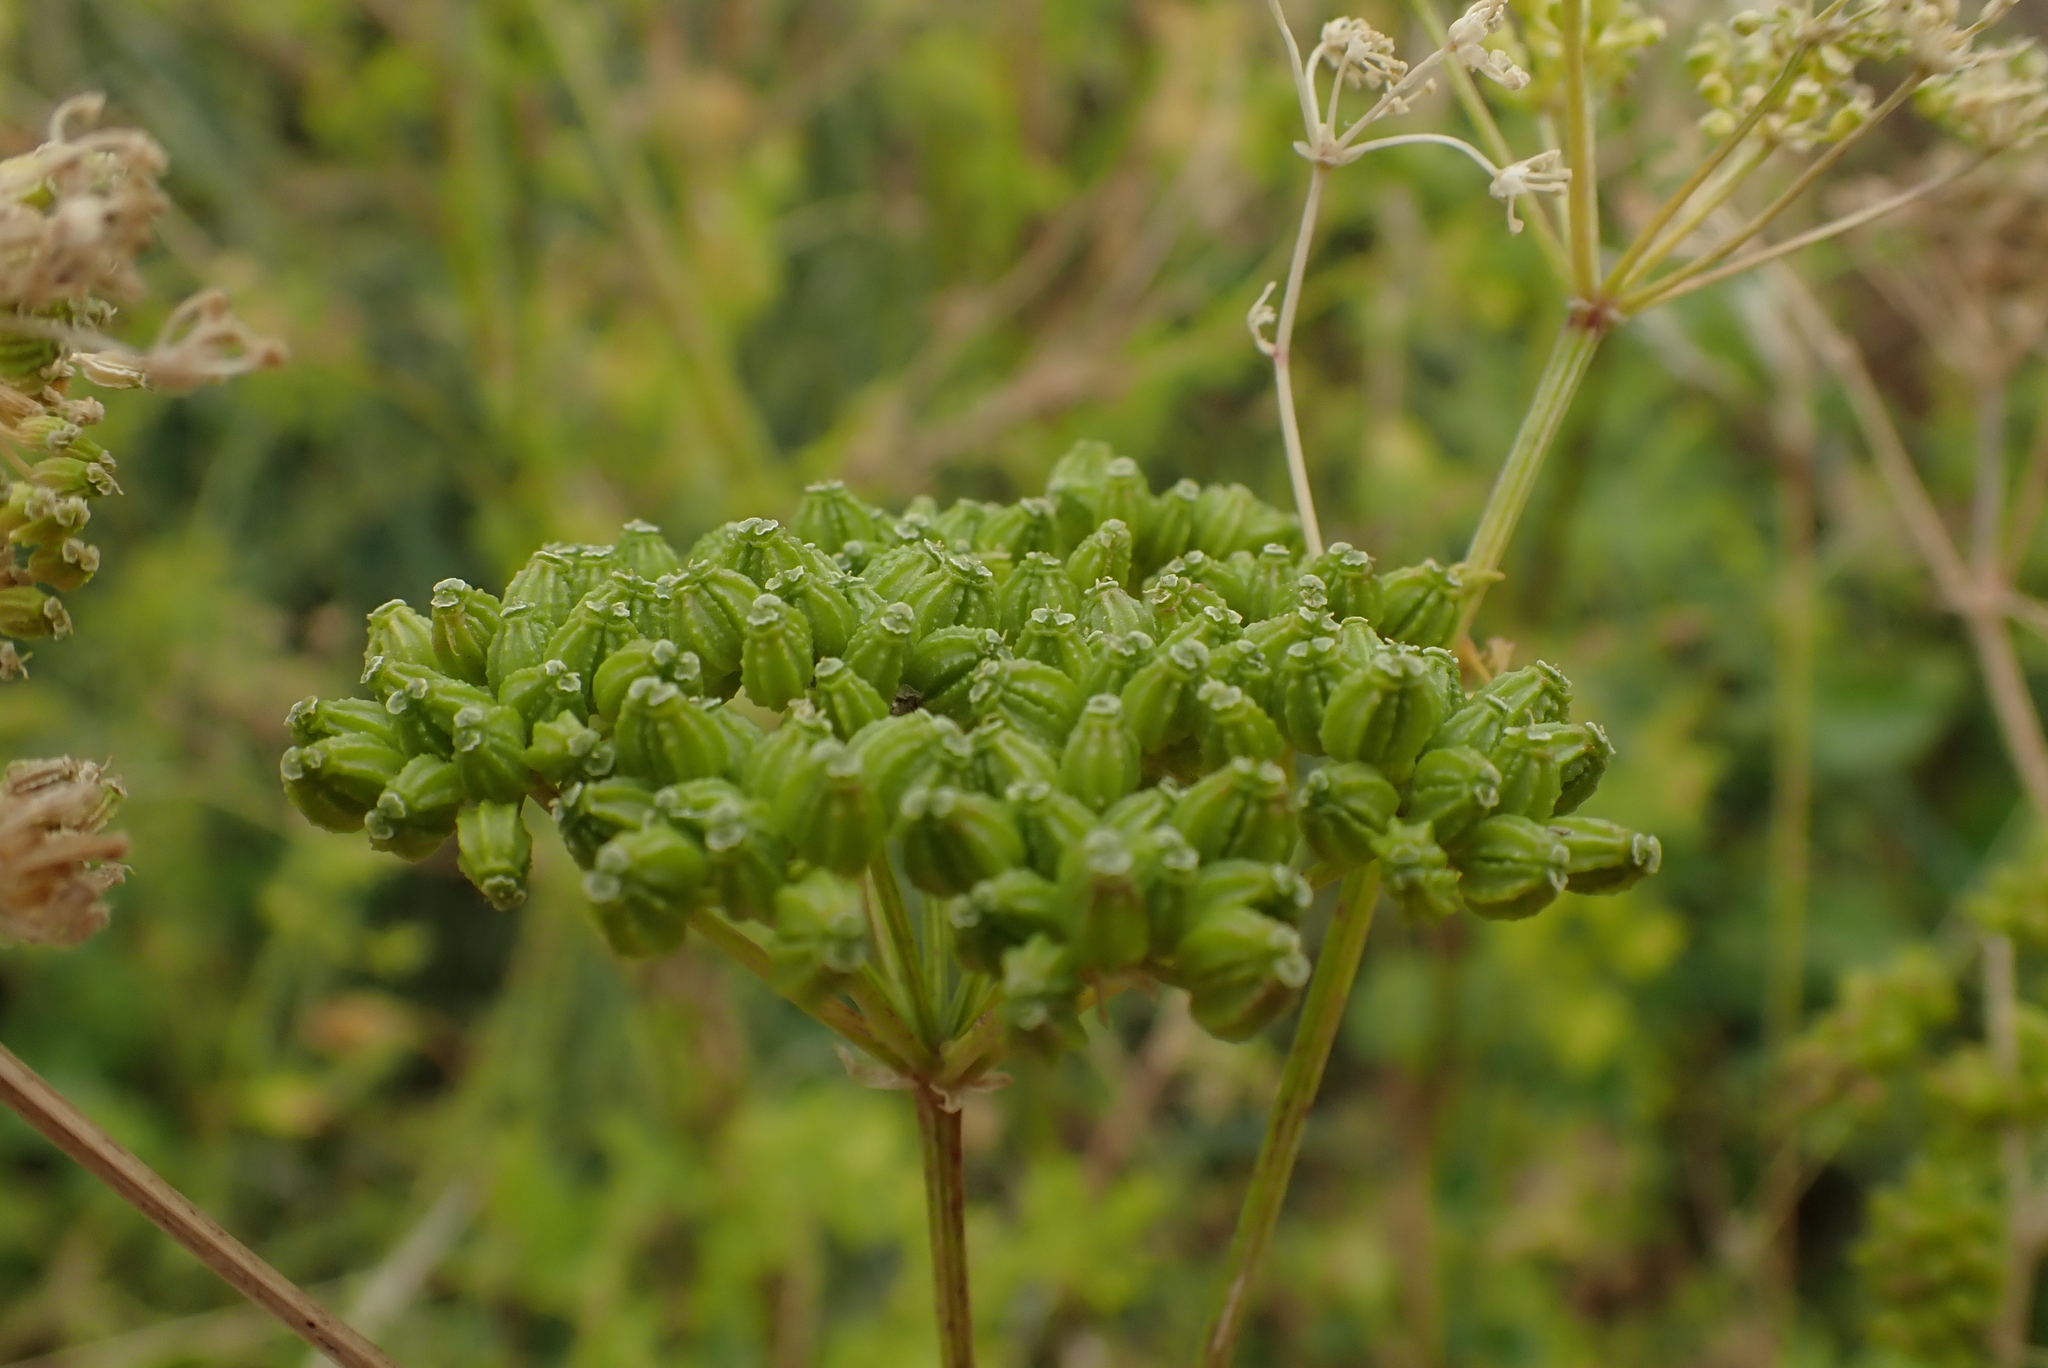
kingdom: Plantae
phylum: Tracheophyta
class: Magnoliopsida
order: Apiales
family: Apiaceae
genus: Conium
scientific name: Conium maculatum
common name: Hemlock
